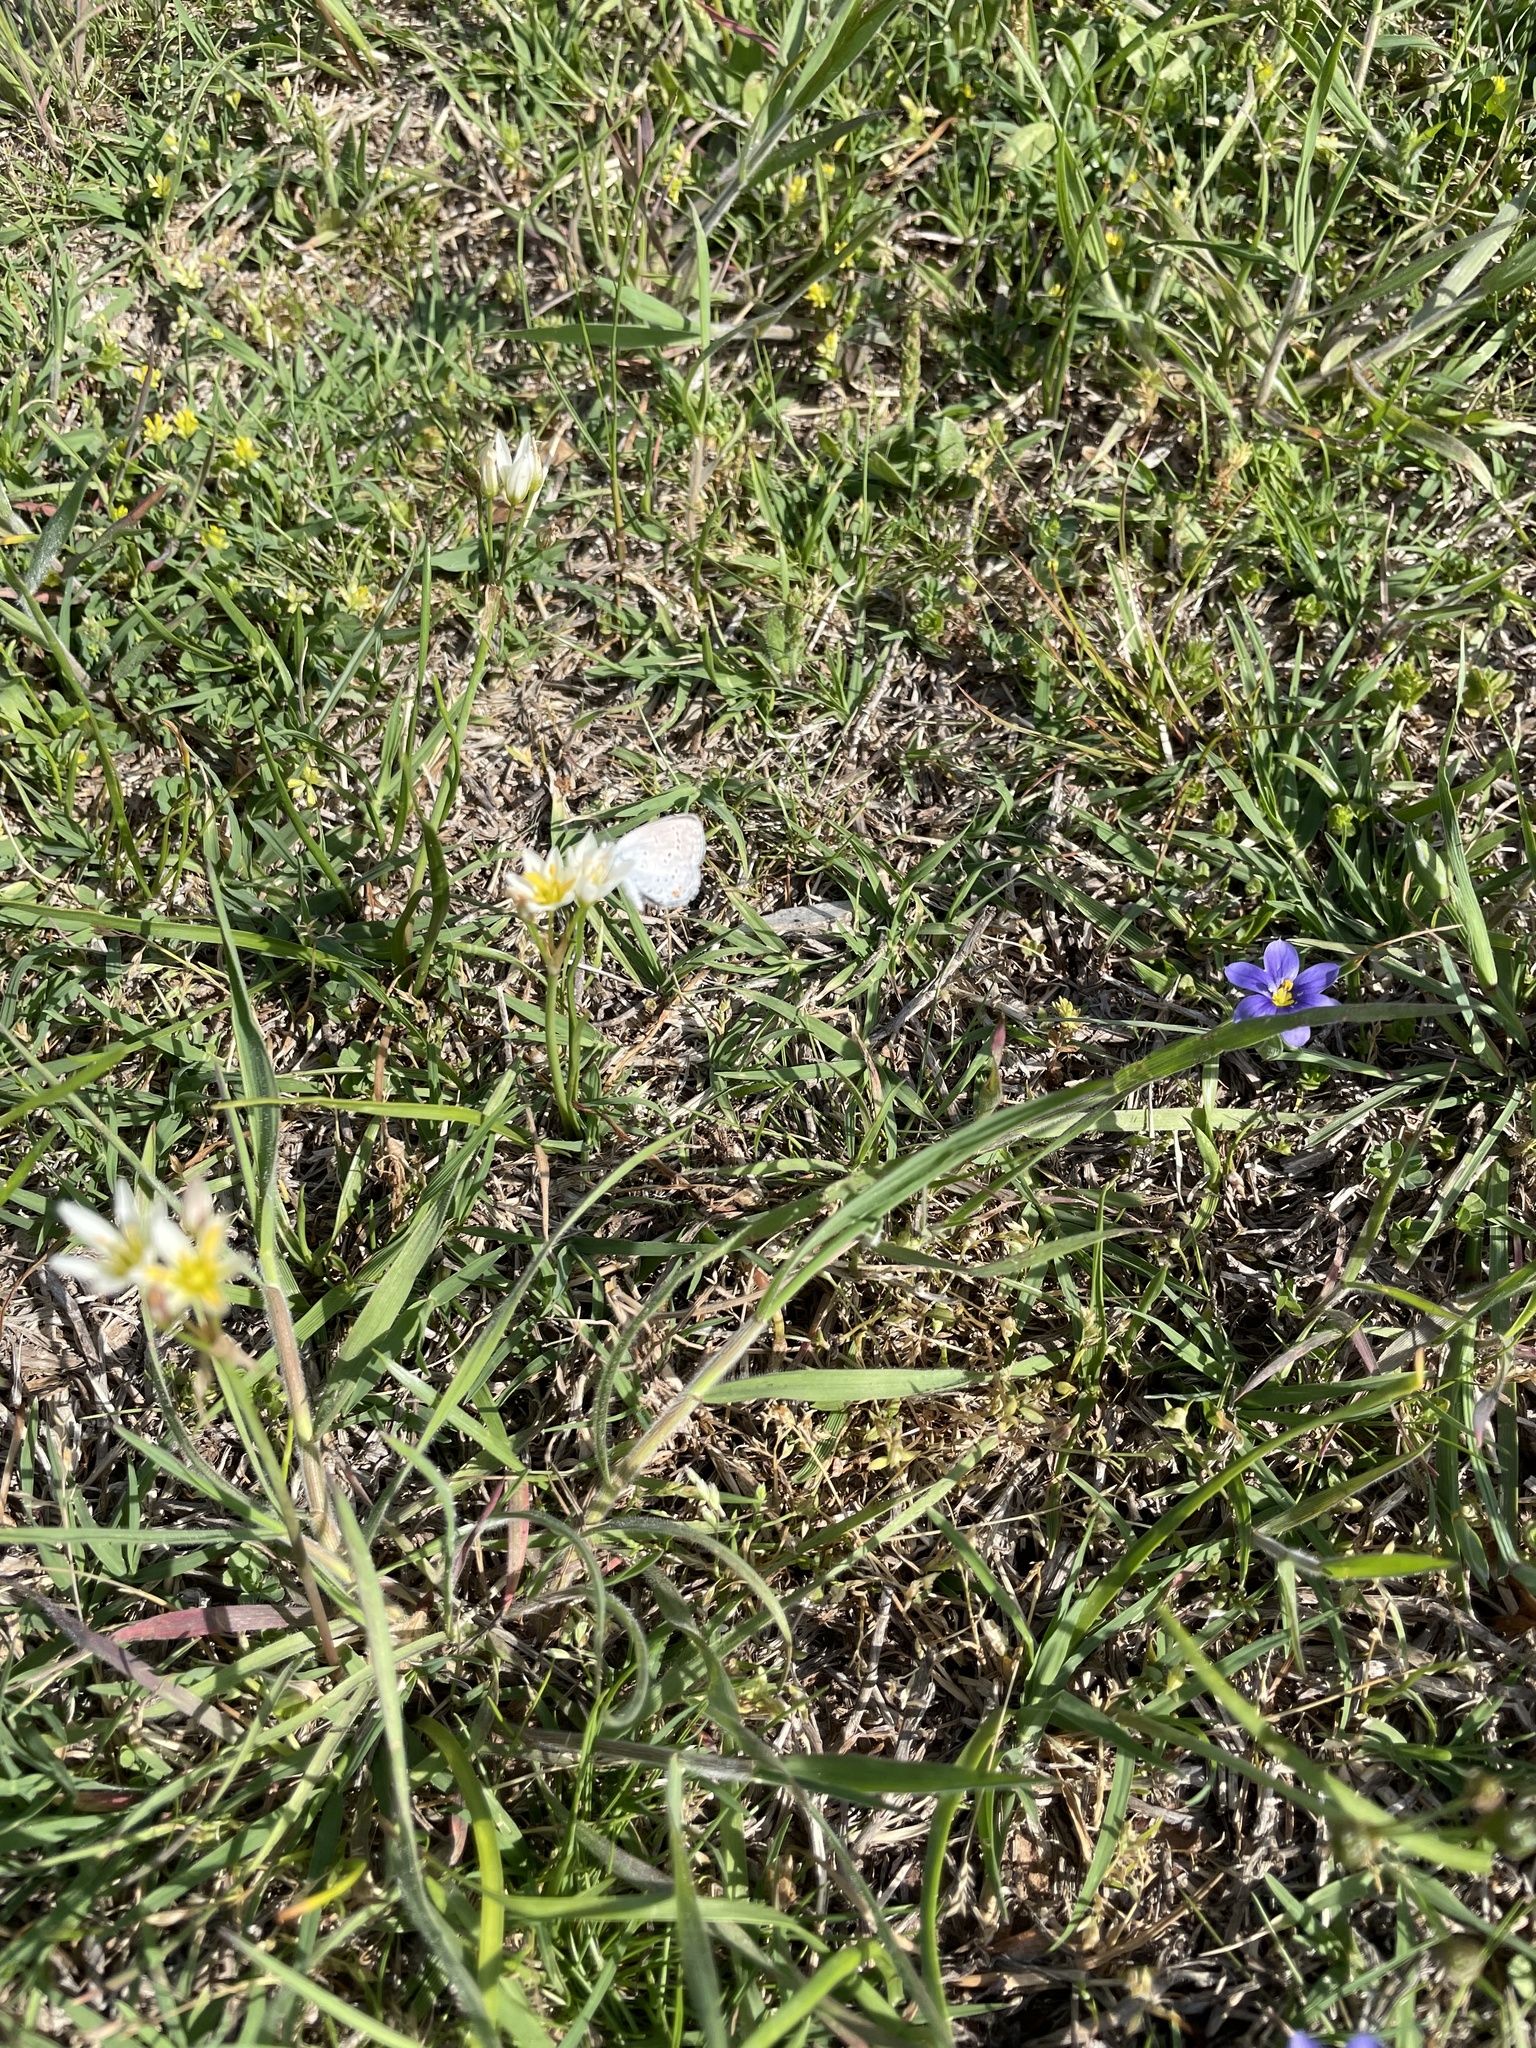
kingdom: Animalia
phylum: Arthropoda
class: Insecta
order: Lepidoptera
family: Lycaenidae
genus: Elkalyce
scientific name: Elkalyce comyntas
